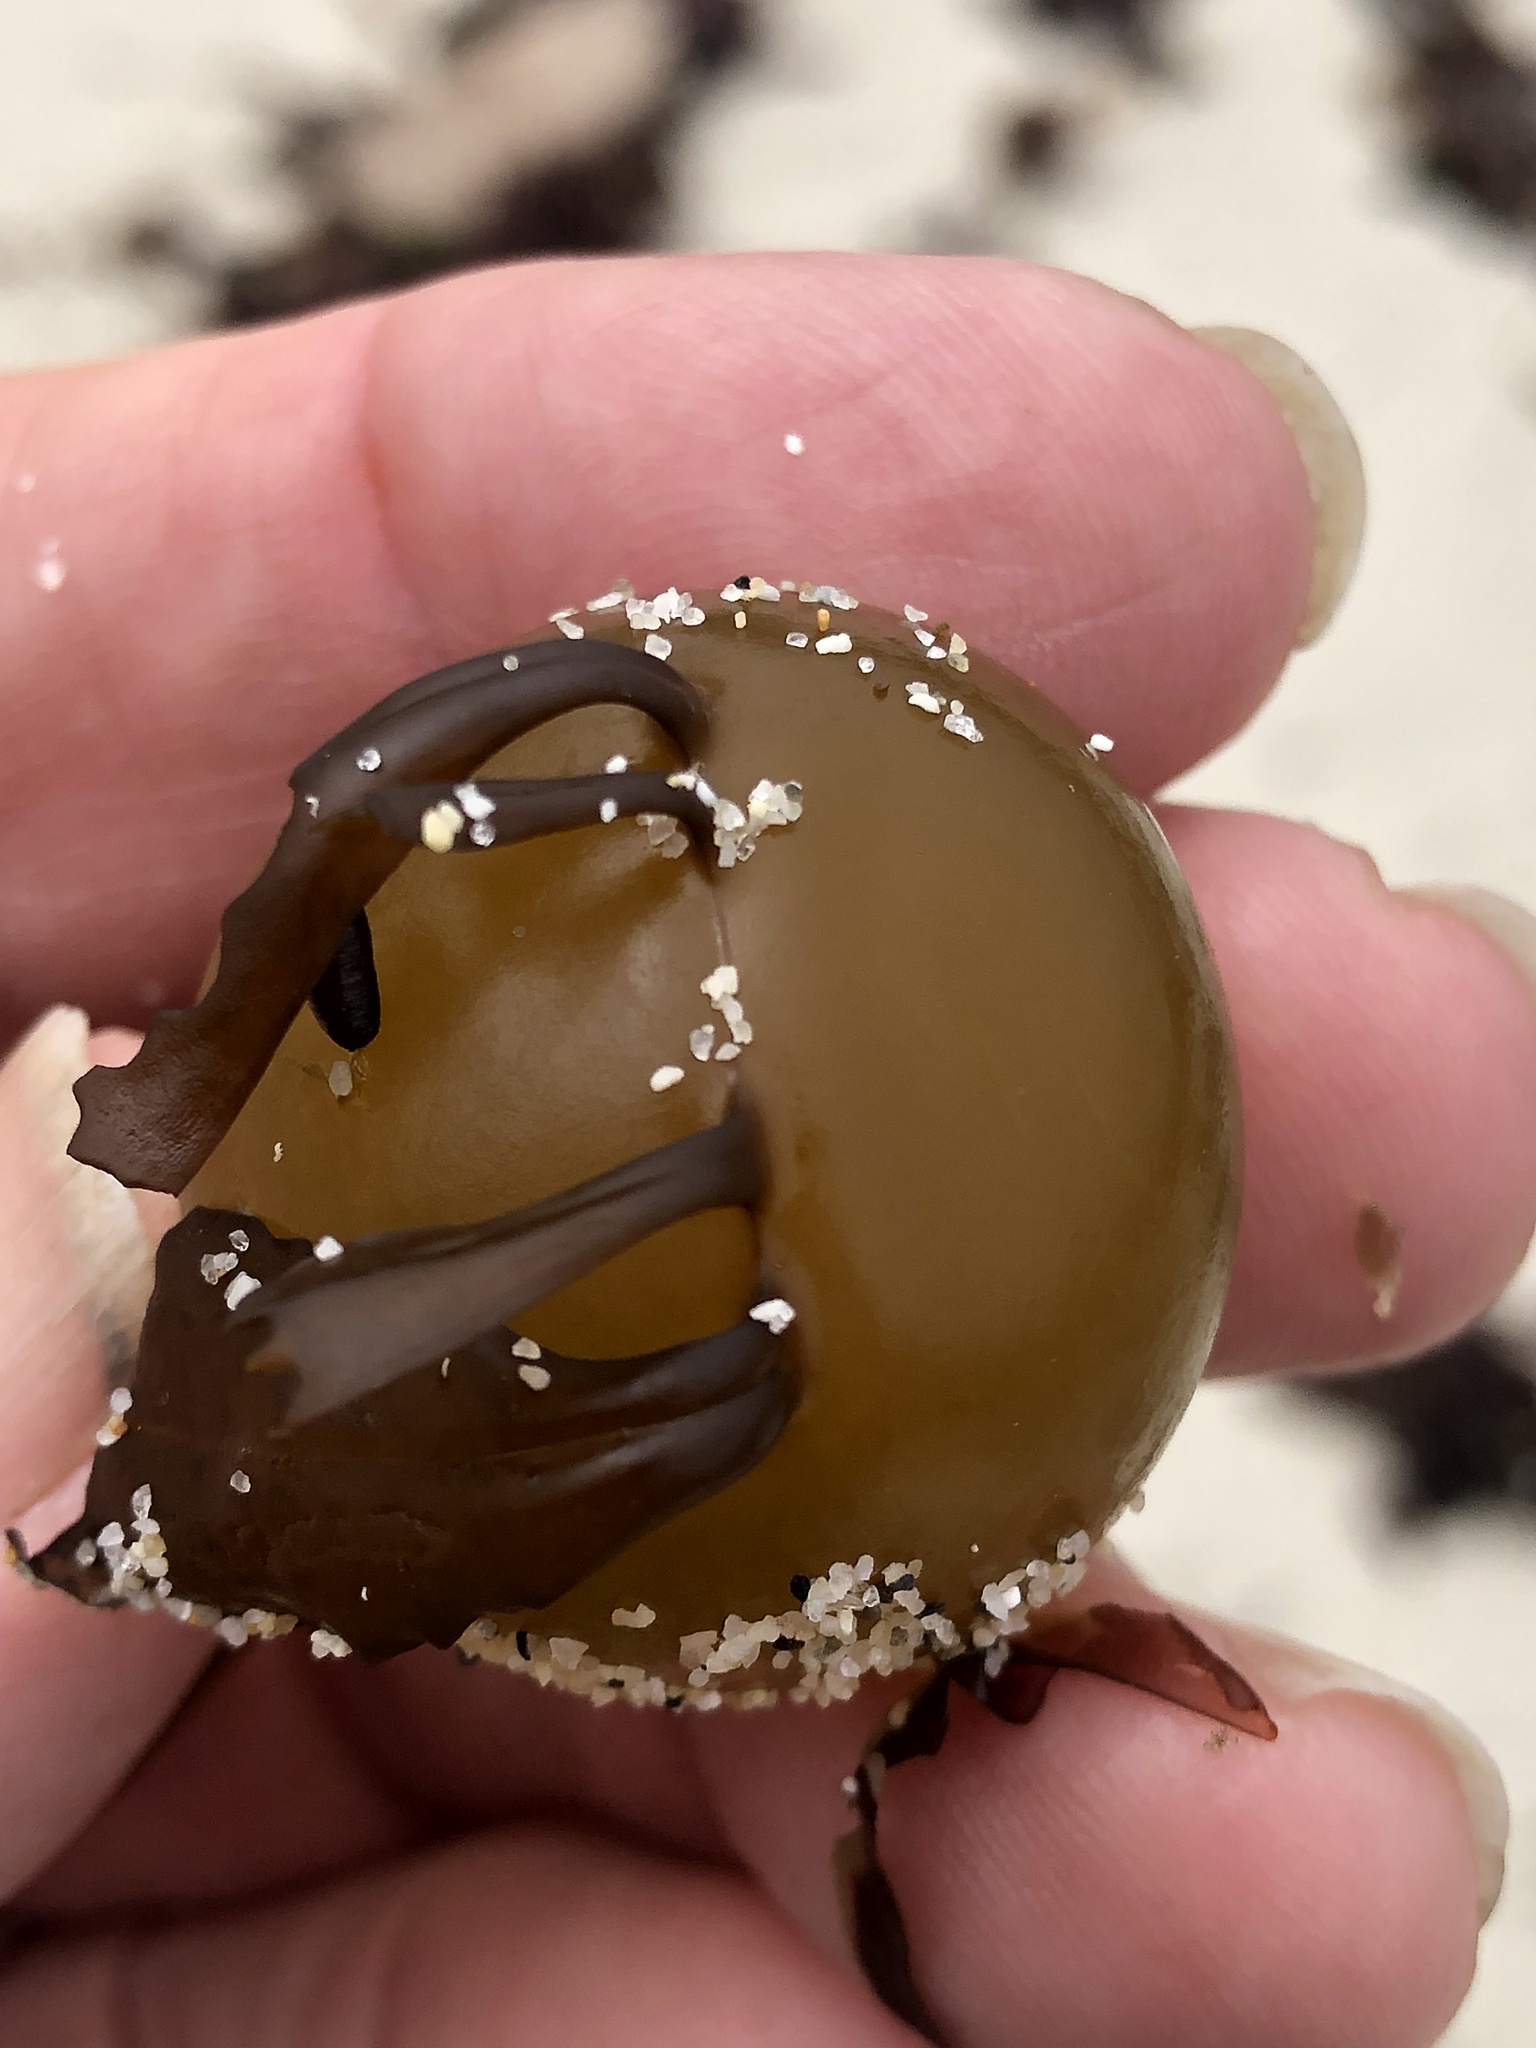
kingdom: Chromista
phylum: Ochrophyta
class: Phaeophyceae
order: Laminariales
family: Laminariaceae
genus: Nereocystis
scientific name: Nereocystis luetkeana
